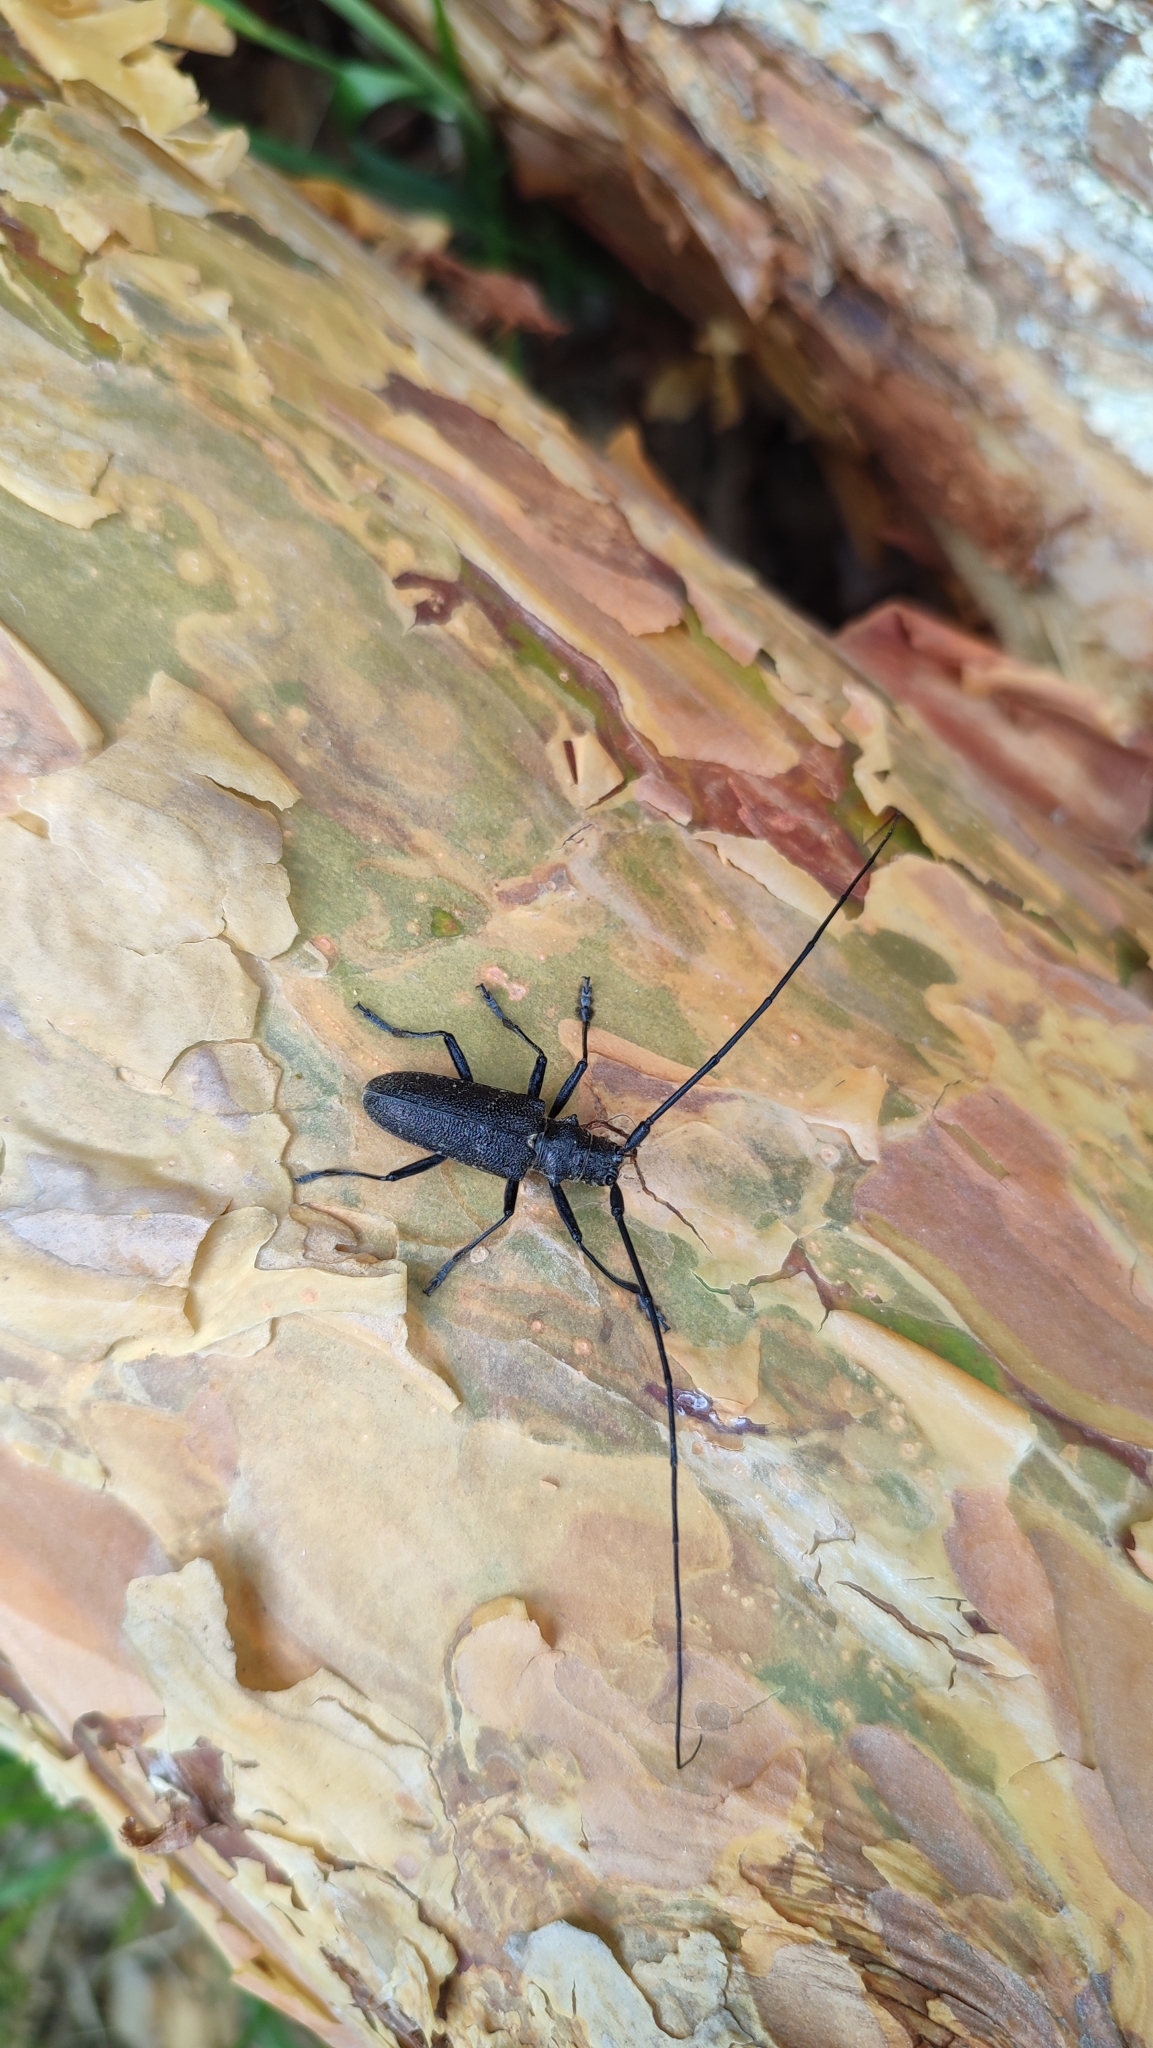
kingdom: Animalia
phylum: Arthropoda
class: Insecta
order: Coleoptera
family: Cerambycidae
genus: Monochamus
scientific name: Monochamus sutor
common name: Pine sawyer
